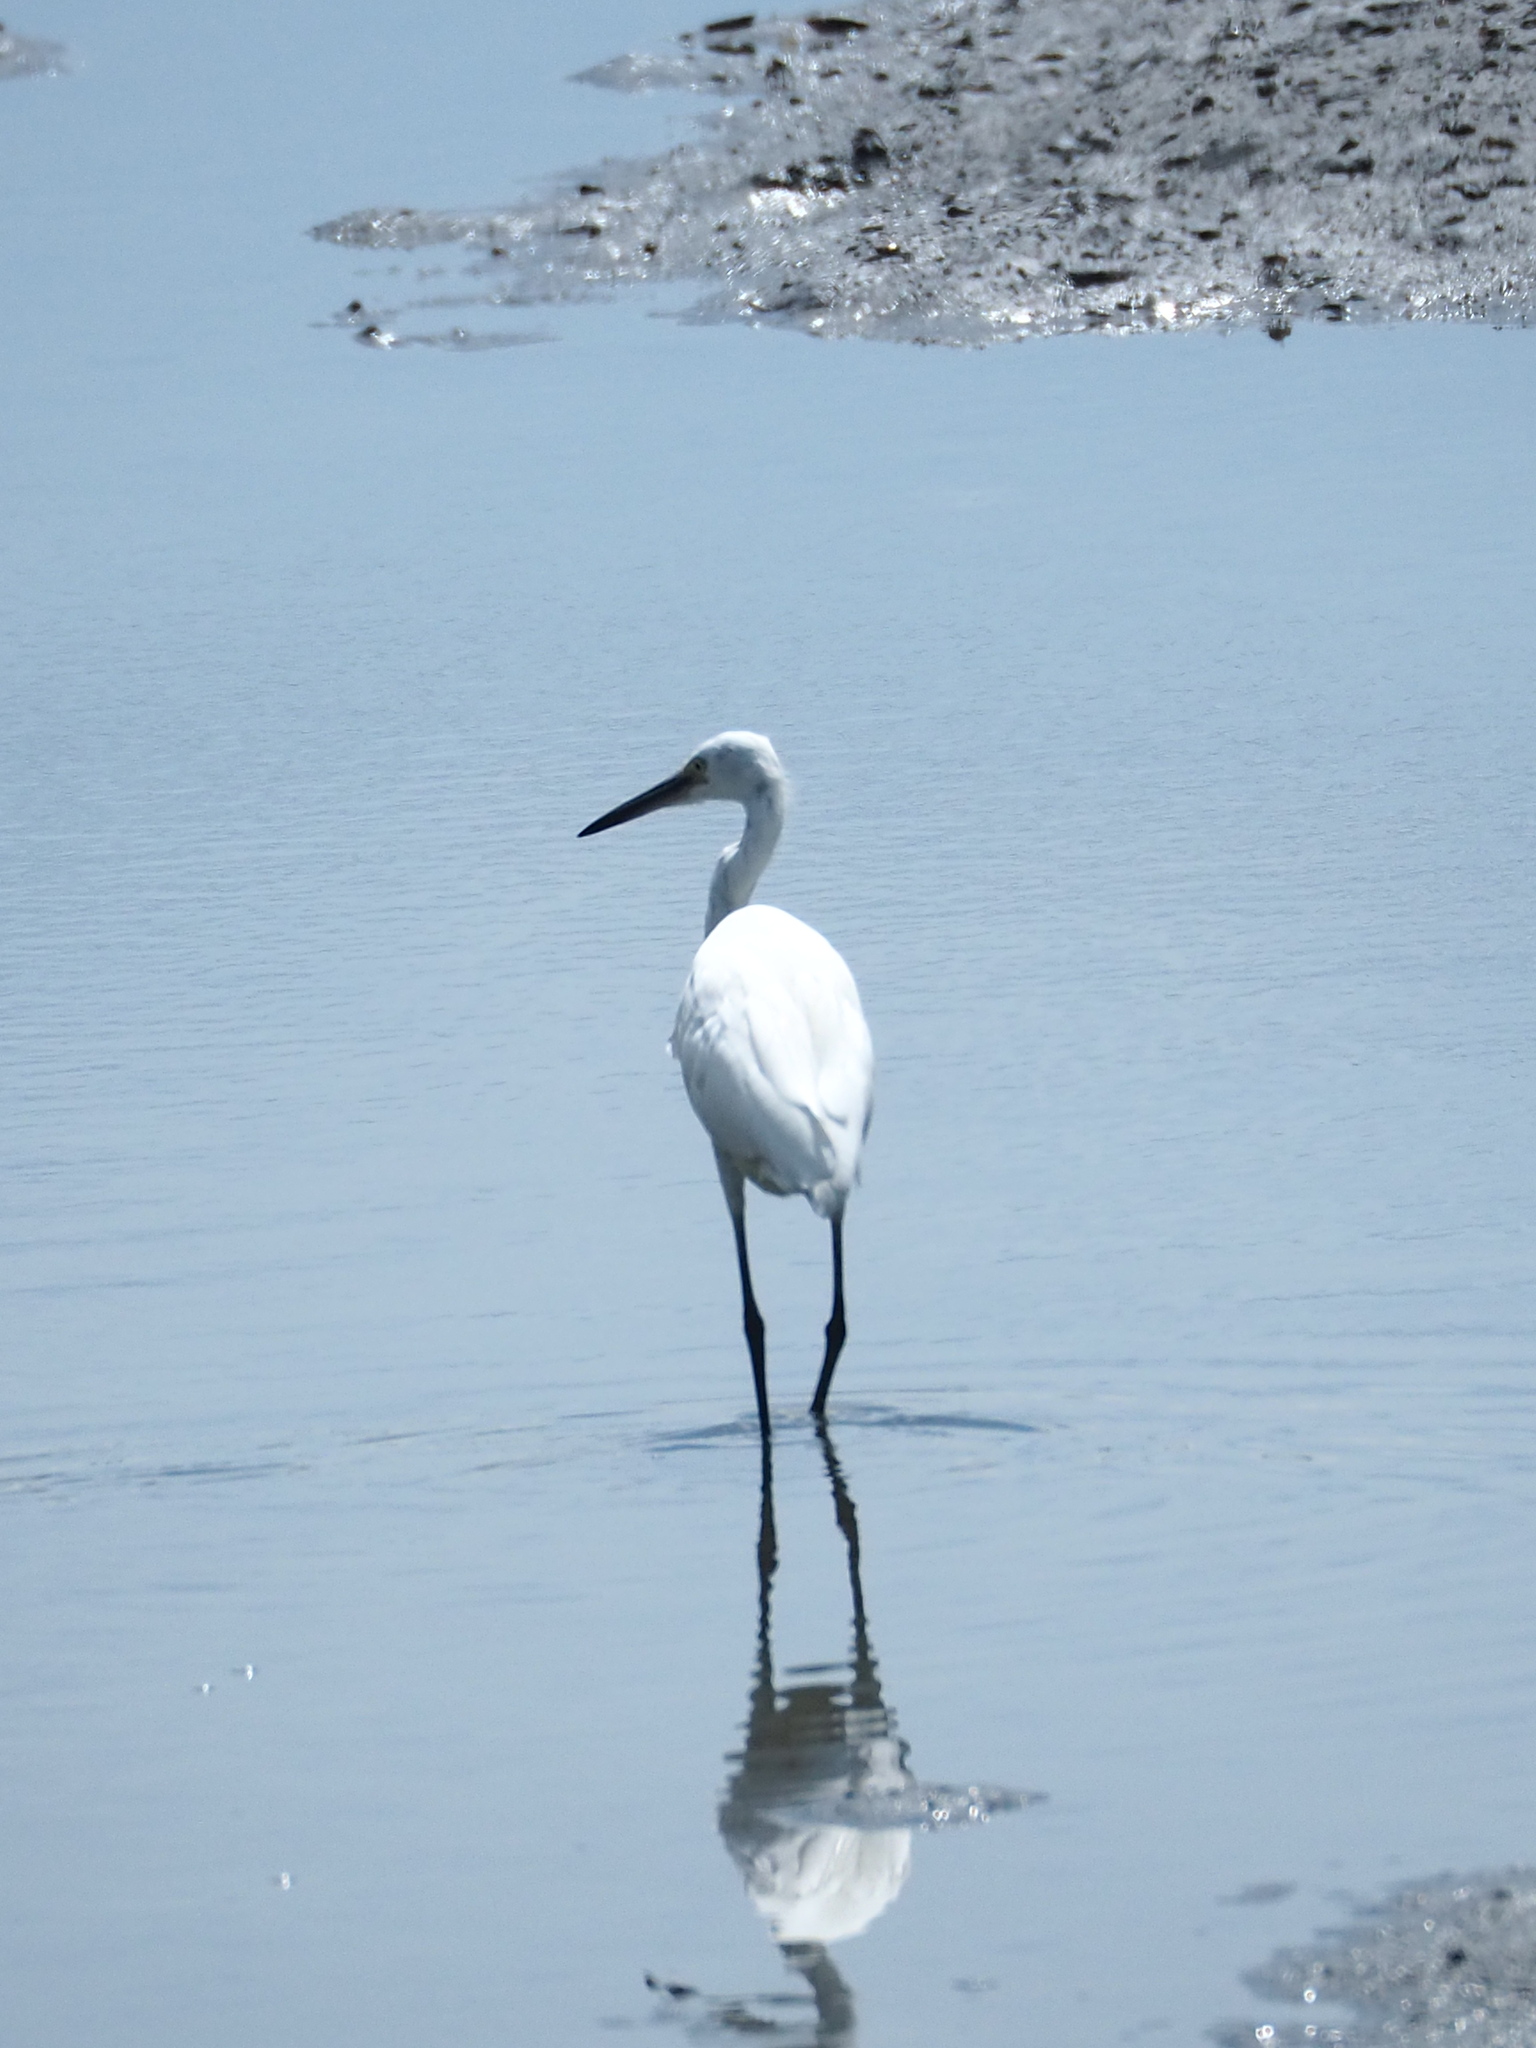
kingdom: Animalia
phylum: Chordata
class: Aves
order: Pelecaniformes
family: Ardeidae
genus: Egretta
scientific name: Egretta garzetta
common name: Little egret
